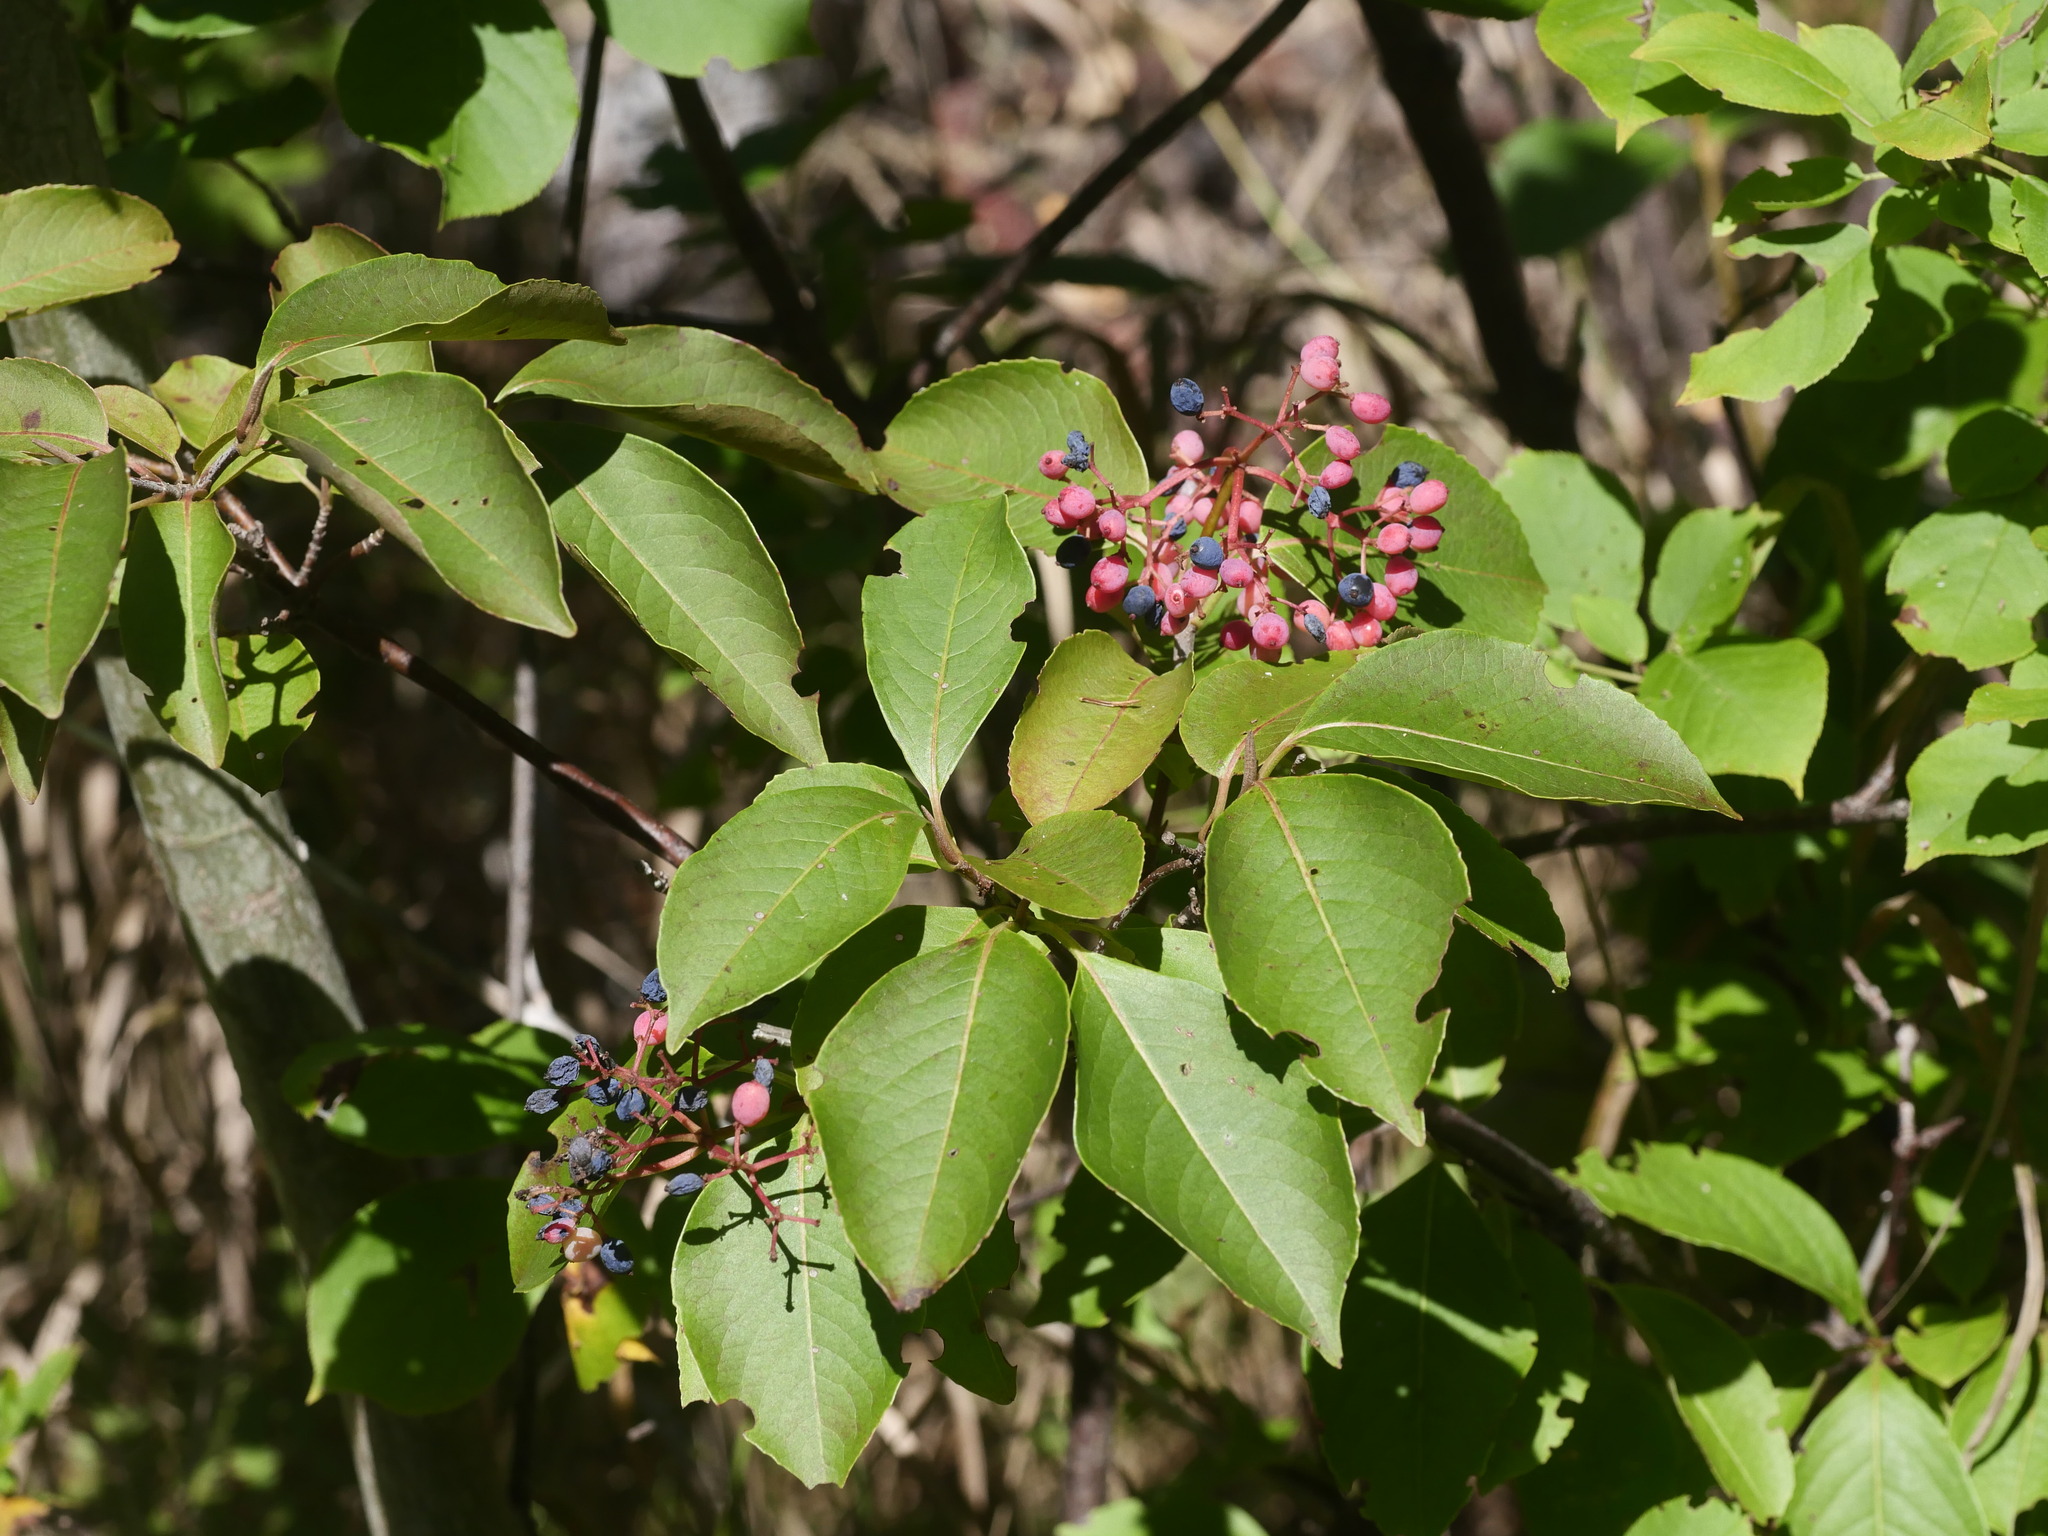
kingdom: Plantae
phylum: Tracheophyta
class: Magnoliopsida
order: Dipsacales
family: Viburnaceae
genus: Viburnum
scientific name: Viburnum cassinoides
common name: Swamp haw
